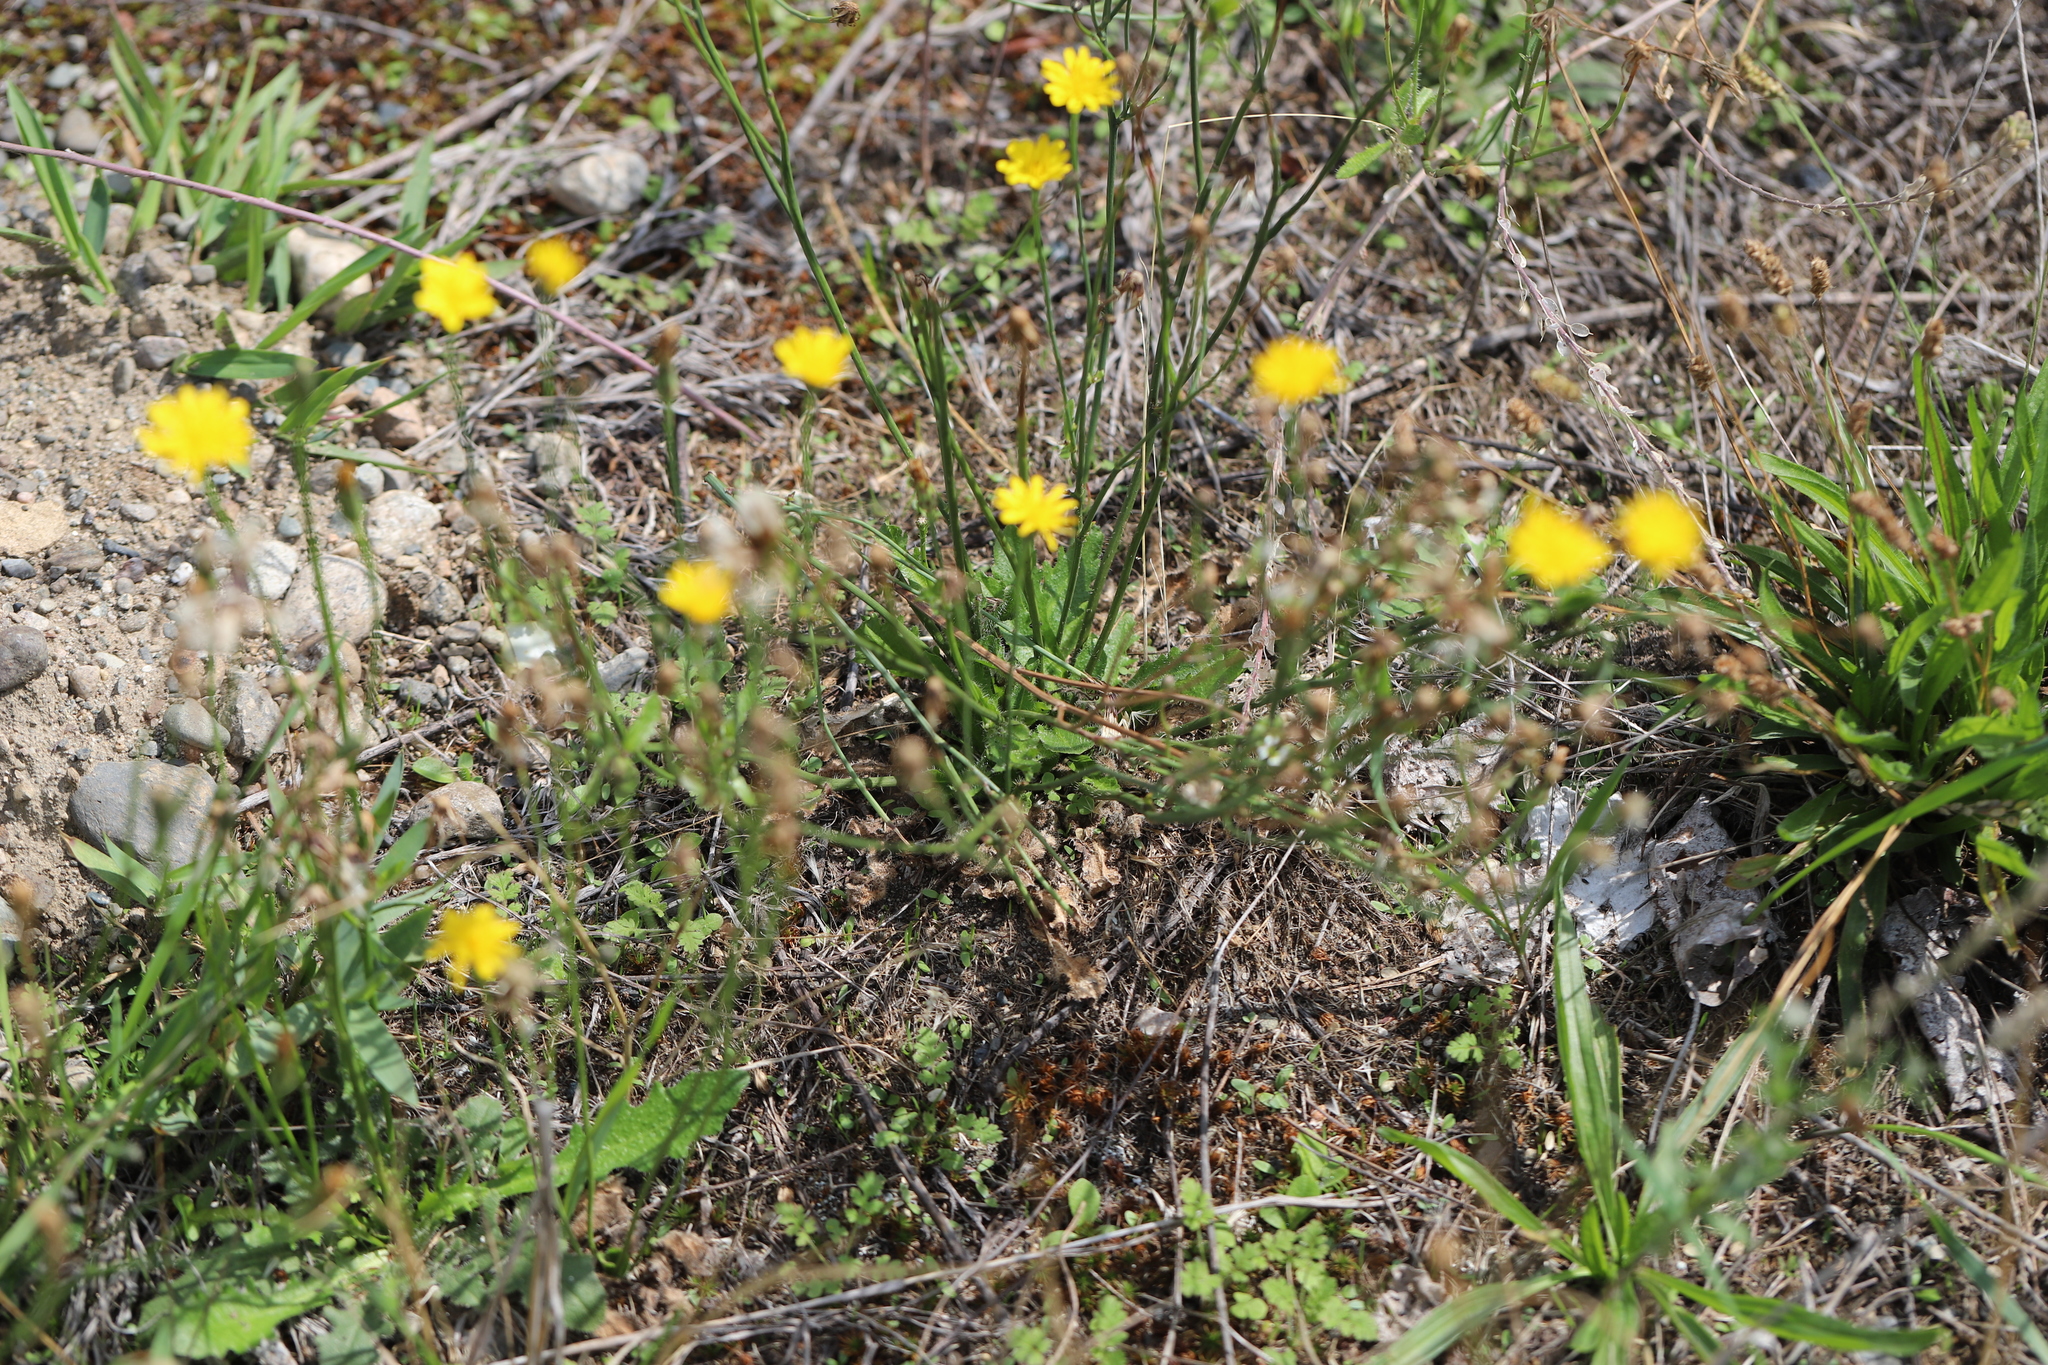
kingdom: Plantae
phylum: Tracheophyta
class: Magnoliopsida
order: Asterales
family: Asteraceae
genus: Hypochaeris
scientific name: Hypochaeris radicata
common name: Flatweed
